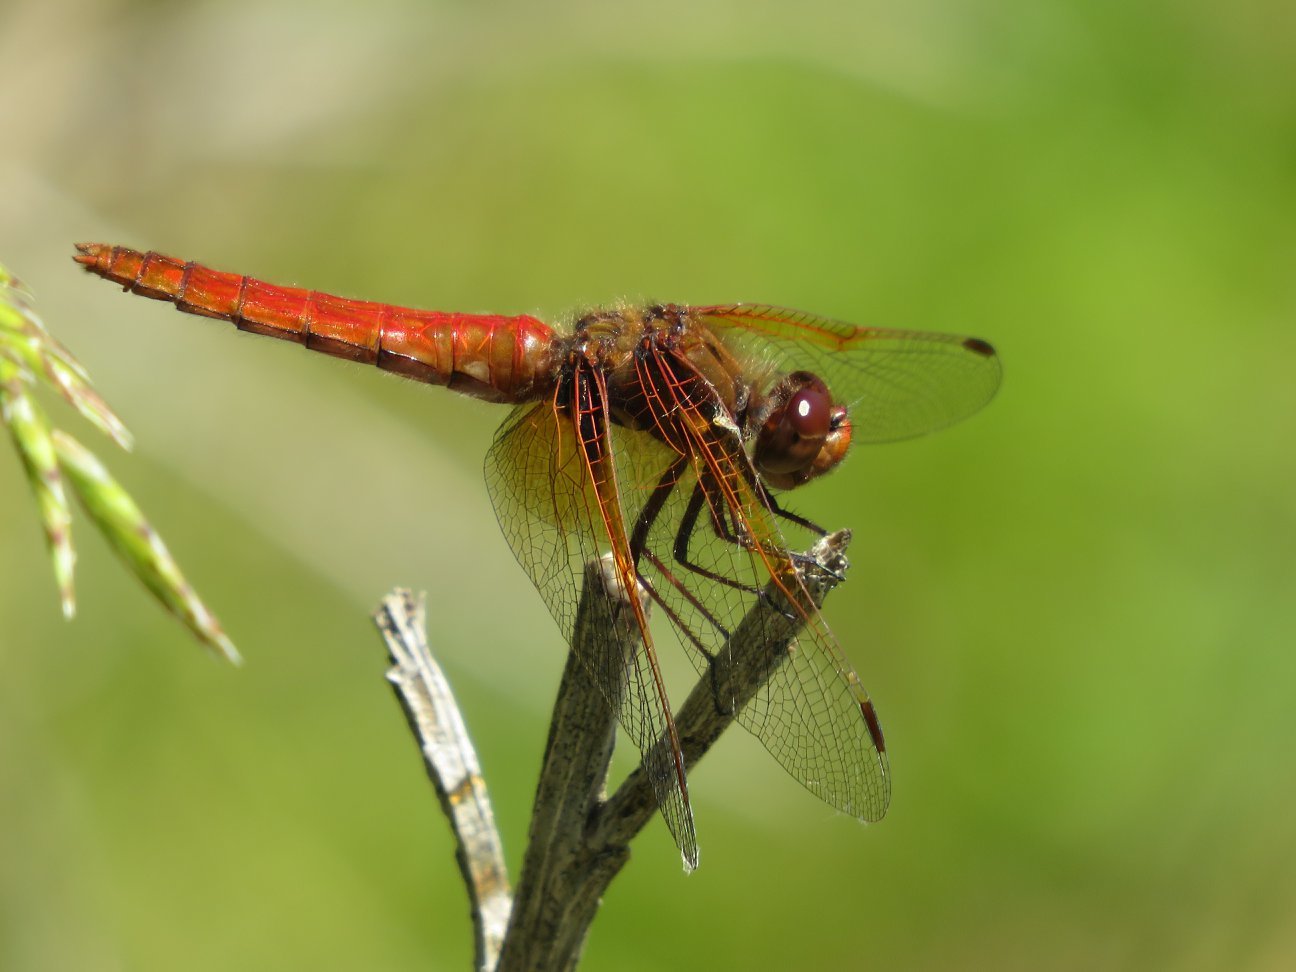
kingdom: Animalia
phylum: Arthropoda
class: Insecta
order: Odonata
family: Libellulidae
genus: Sympetrum
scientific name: Sympetrum illotum
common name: Cardinal meadowhawk
